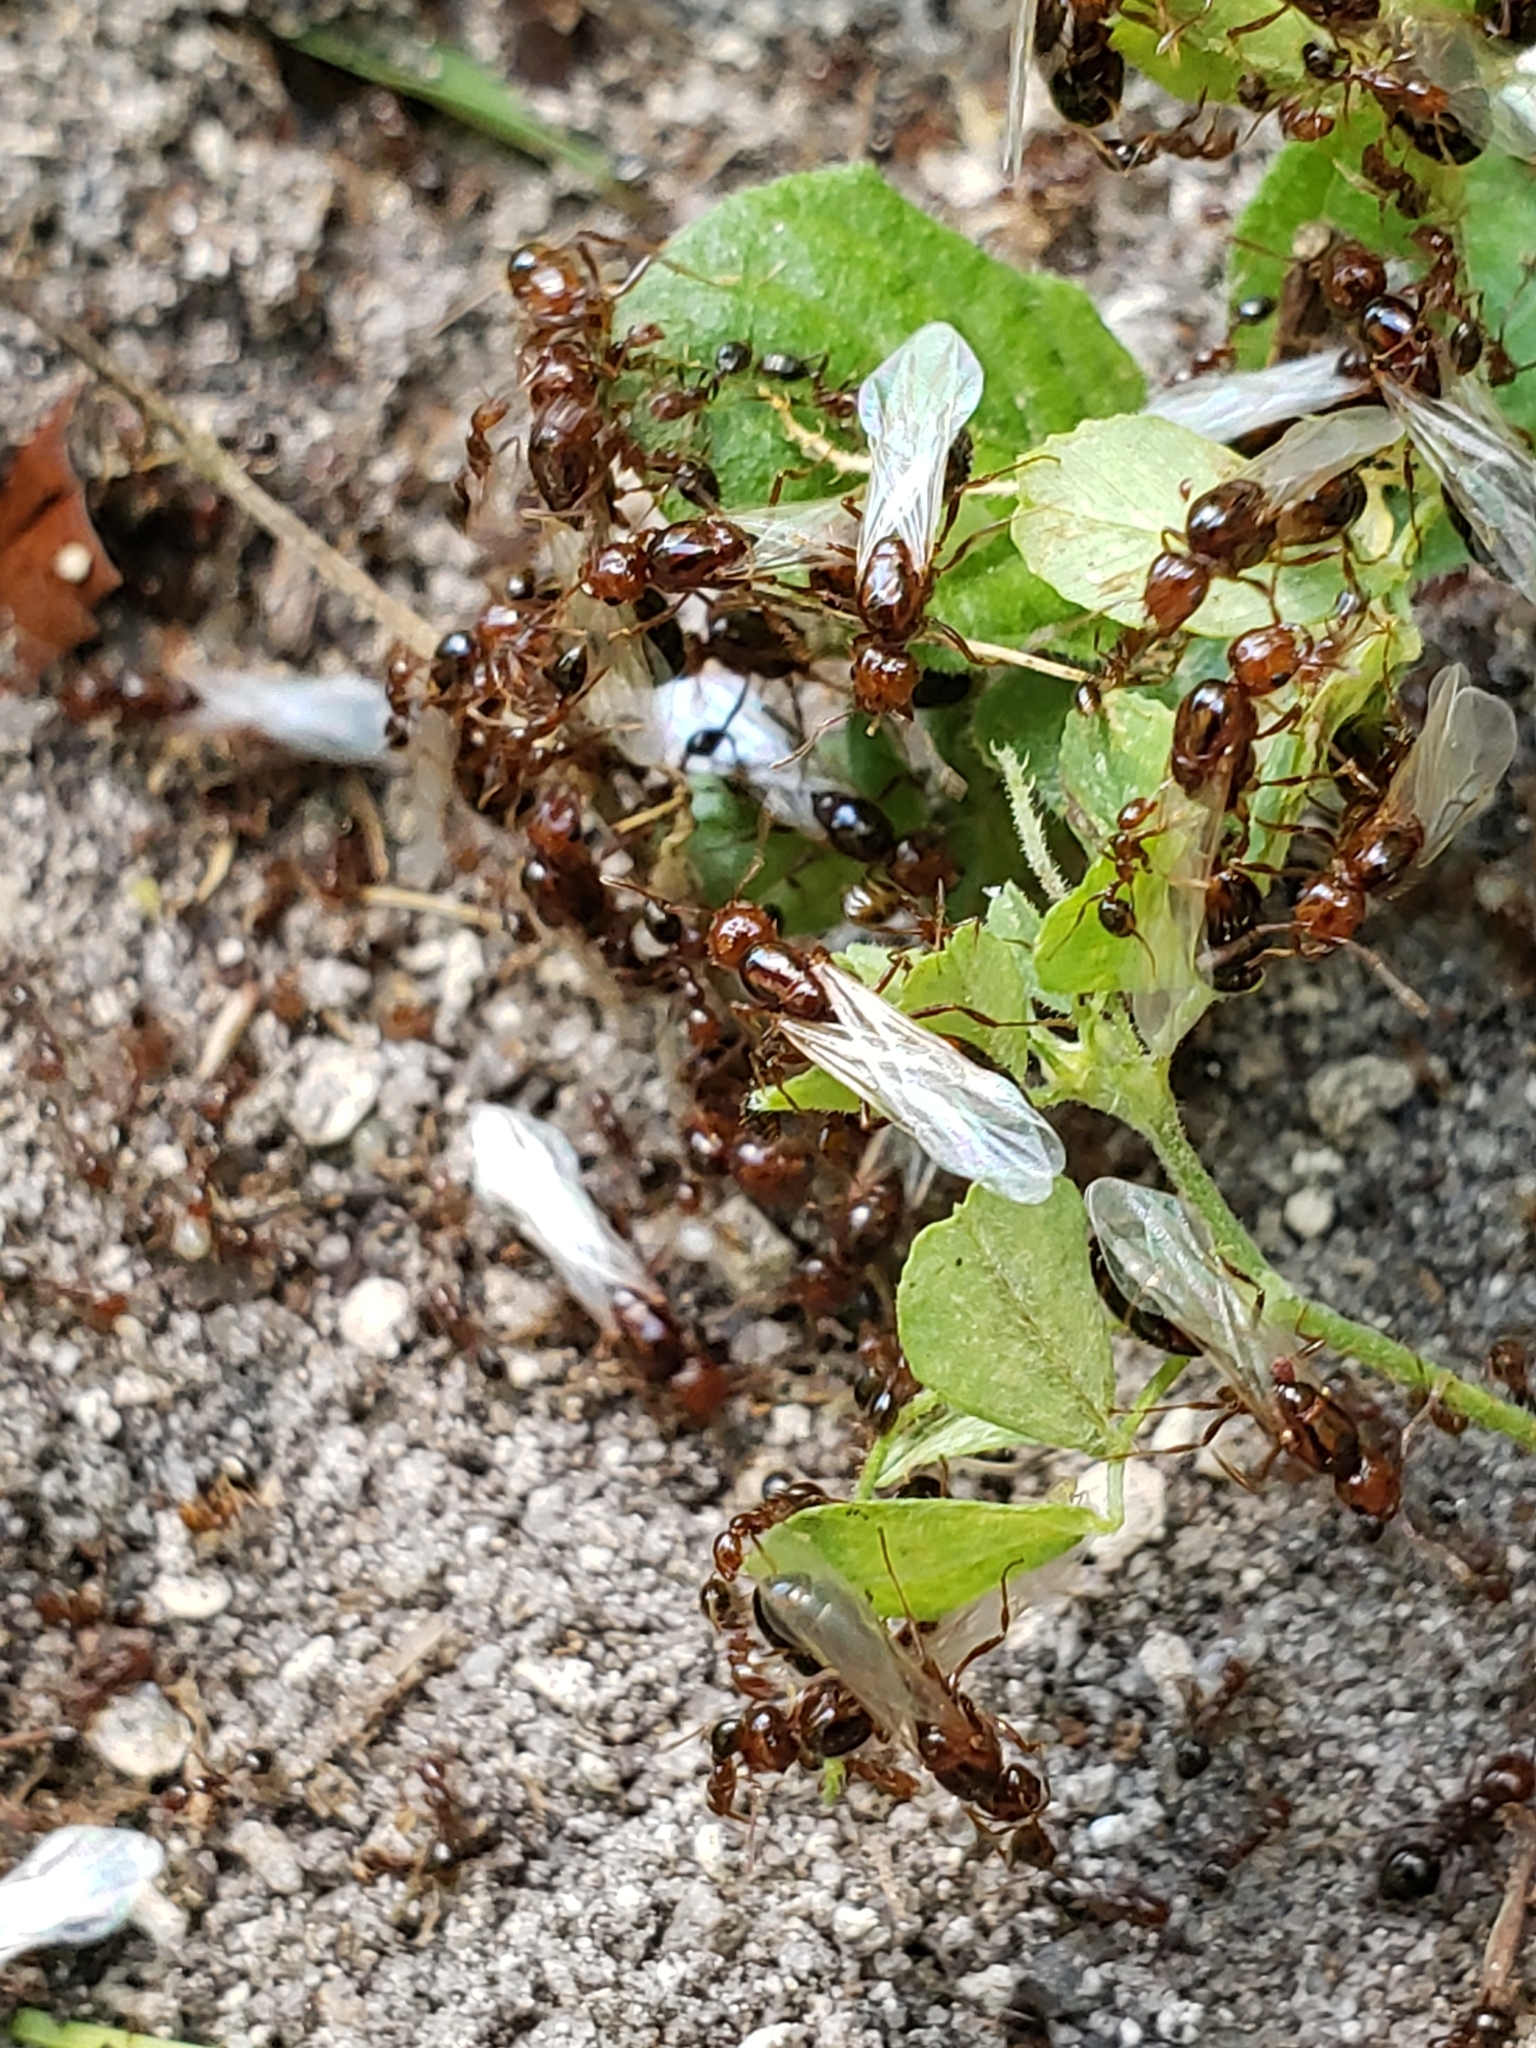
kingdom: Animalia
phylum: Arthropoda
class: Insecta
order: Hymenoptera
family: Formicidae
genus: Solenopsis
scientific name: Solenopsis invicta
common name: Red imported fire ant
